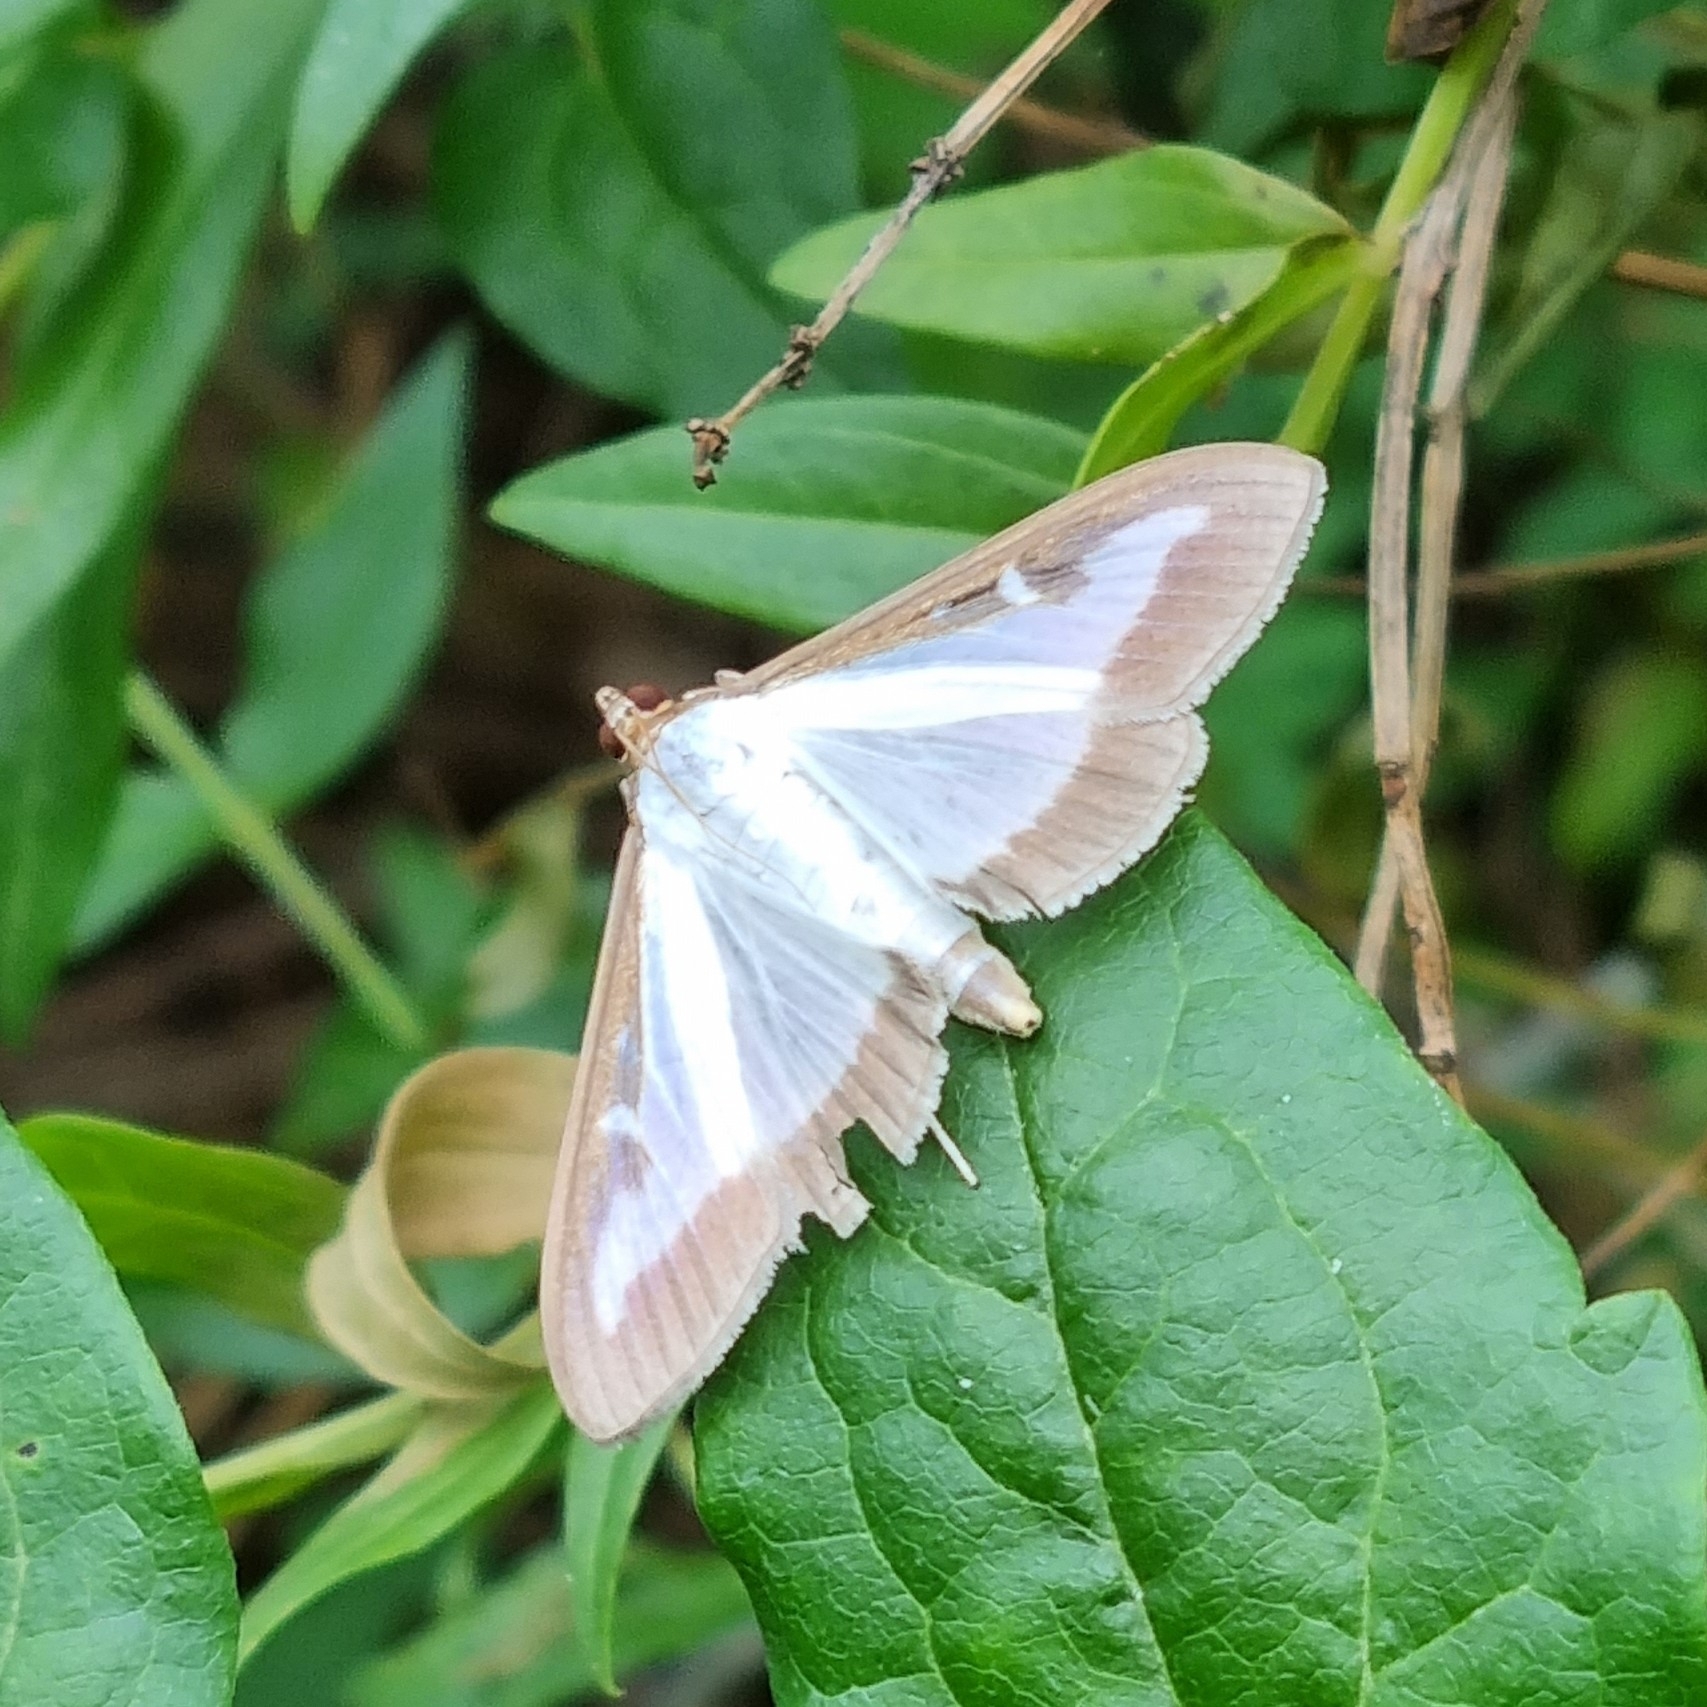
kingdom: Animalia
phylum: Arthropoda
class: Insecta
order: Lepidoptera
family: Crambidae
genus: Cydalima
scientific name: Cydalima perspectalis
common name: Box tree moth
